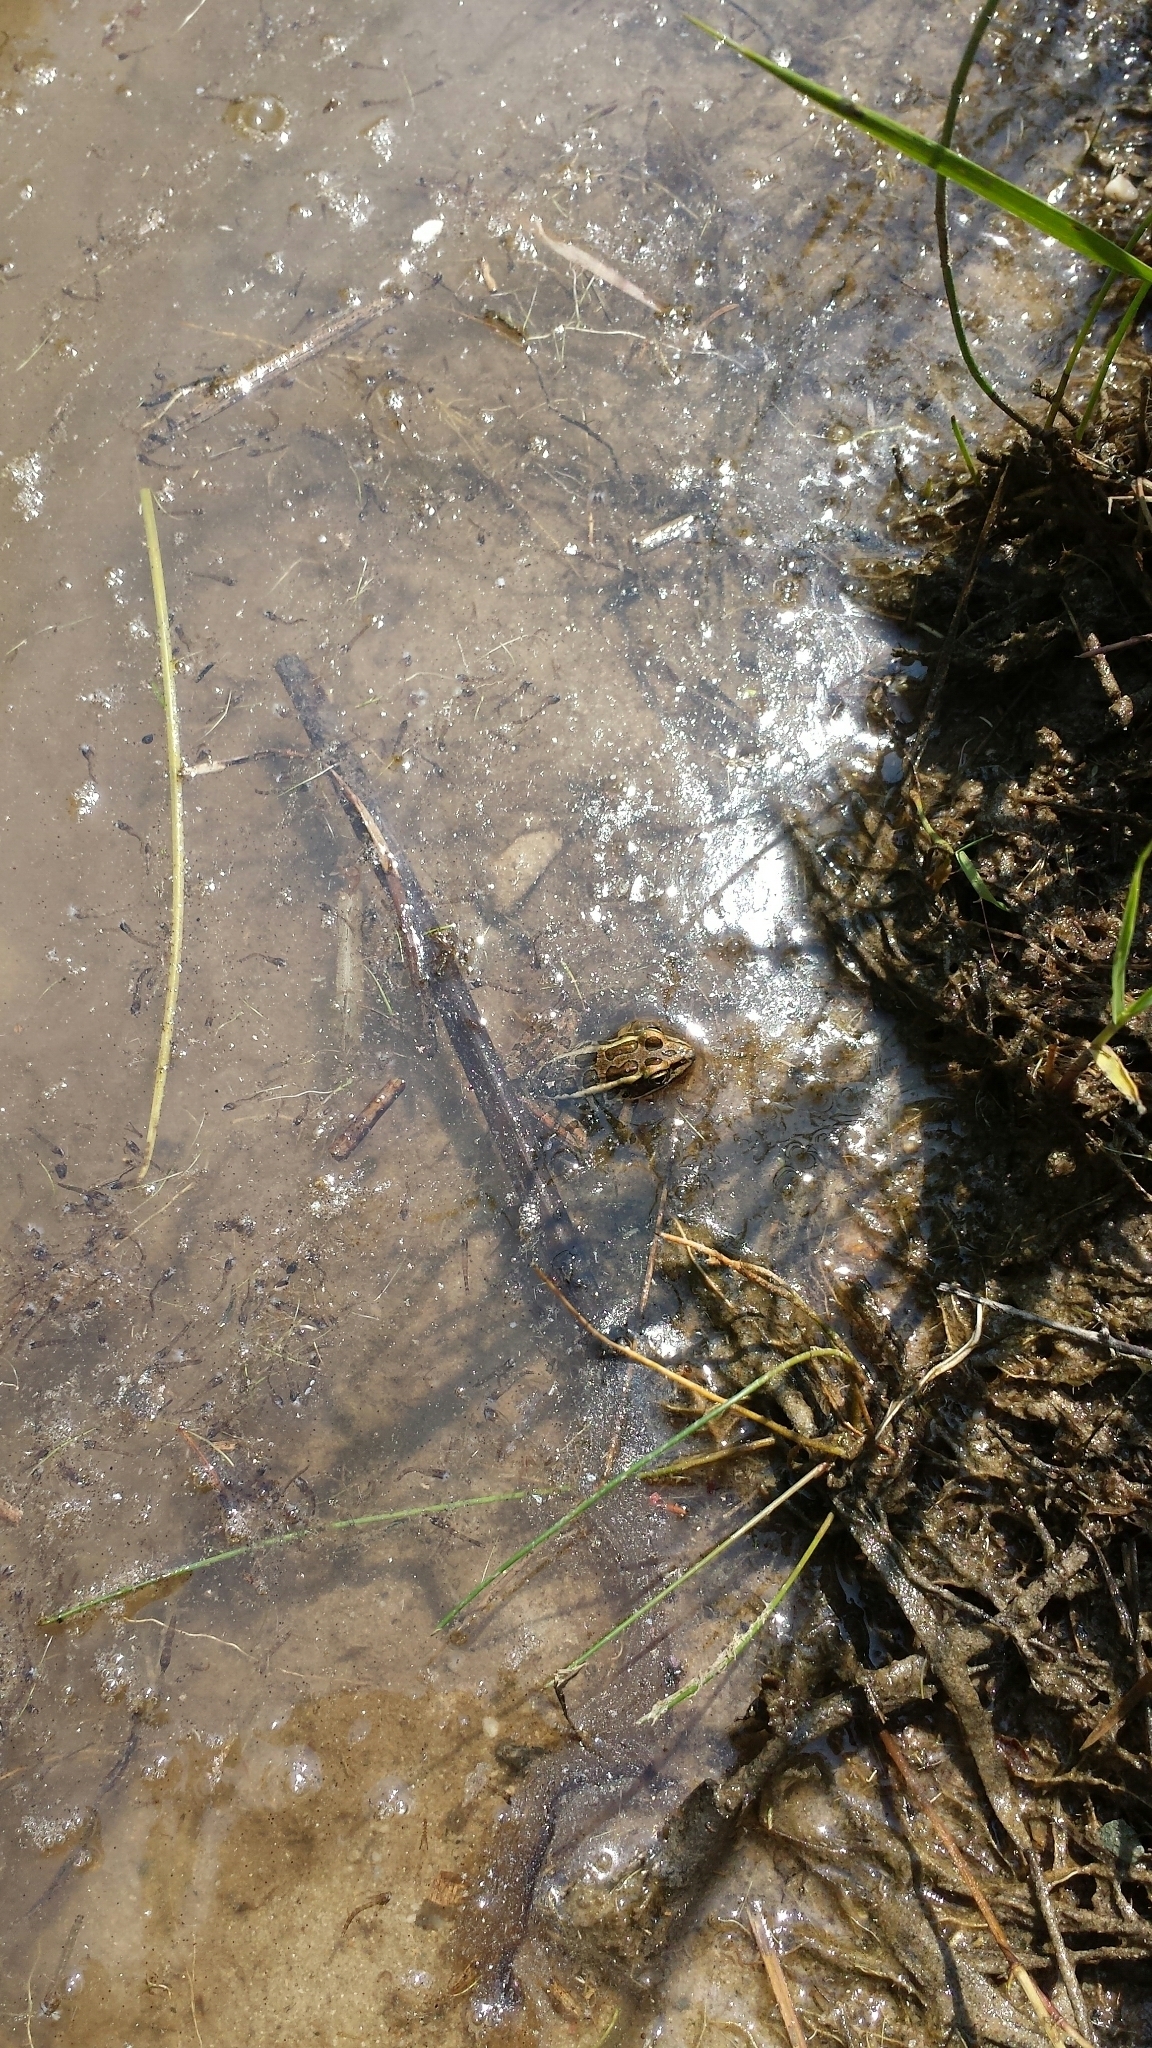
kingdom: Animalia
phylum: Chordata
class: Amphibia
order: Anura
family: Ranidae
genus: Lithobates
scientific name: Lithobates palustris
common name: Pickerel frog
